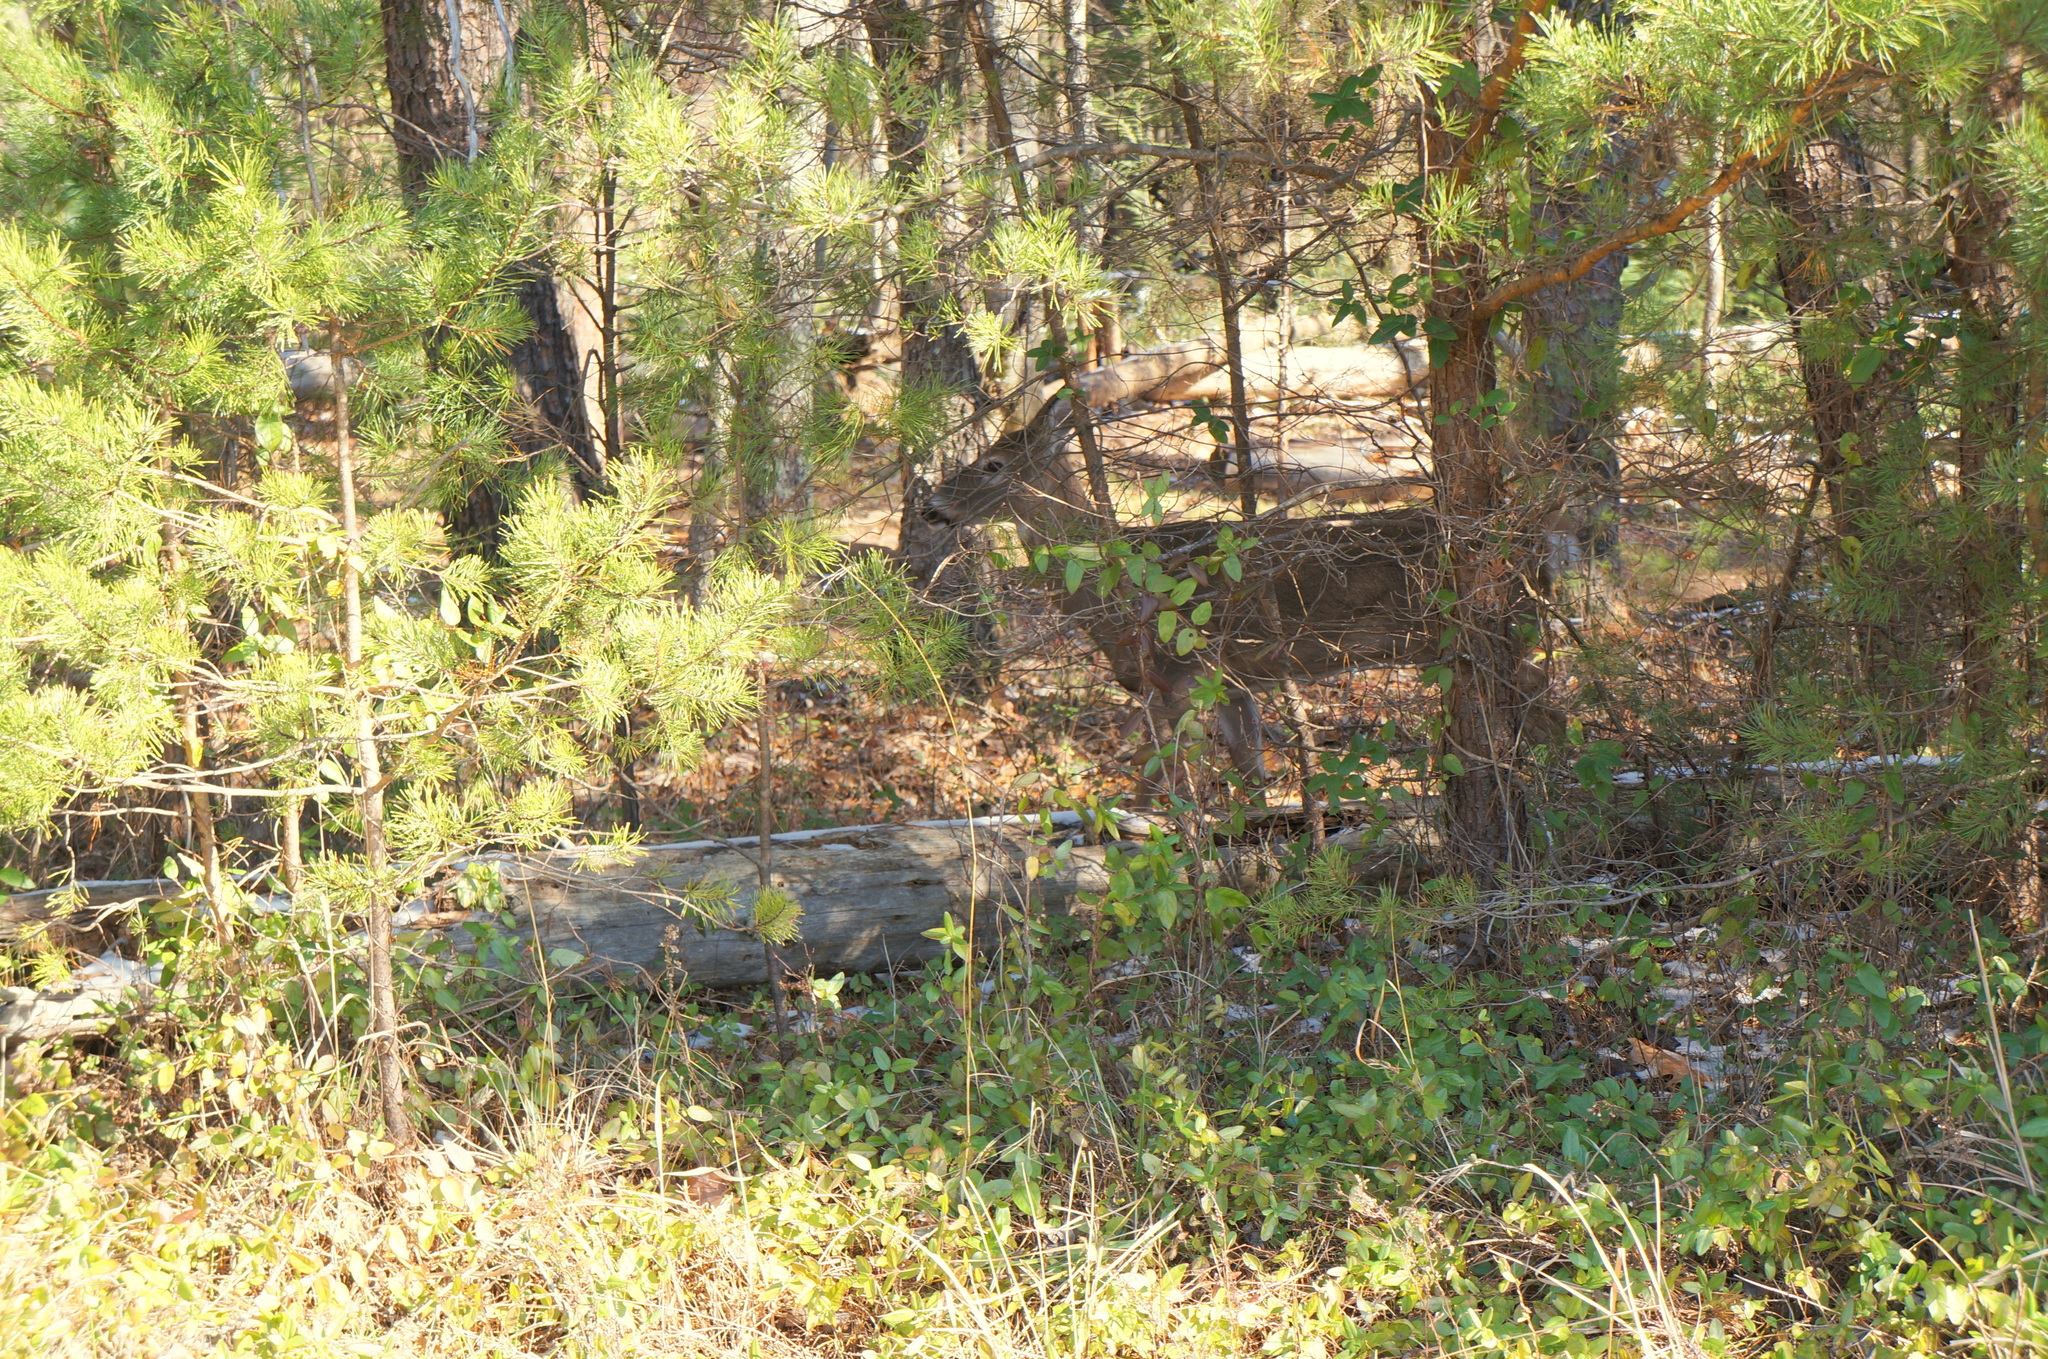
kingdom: Animalia
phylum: Chordata
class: Mammalia
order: Artiodactyla
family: Cervidae
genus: Odocoileus
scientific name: Odocoileus virginianus
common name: White-tailed deer
